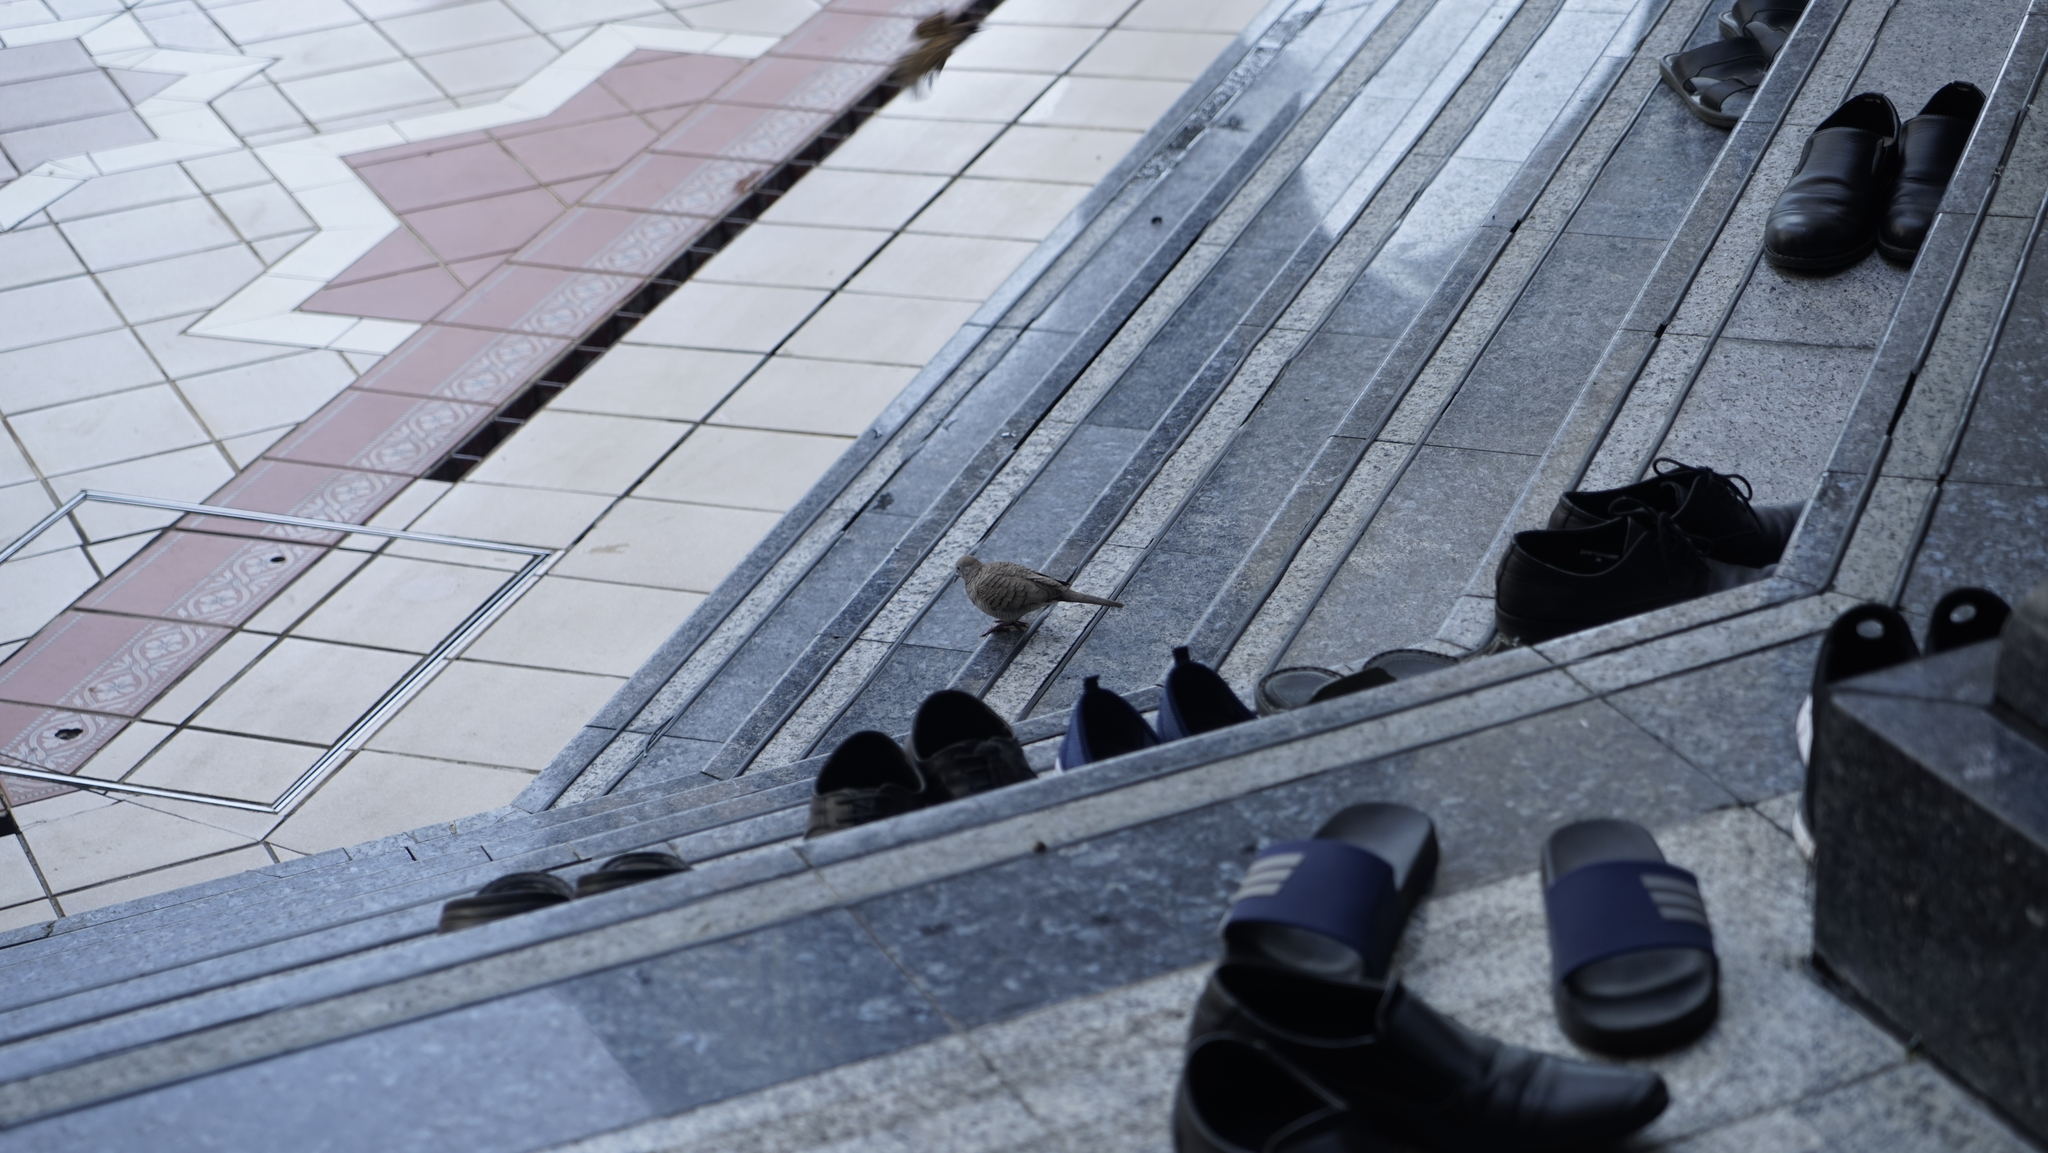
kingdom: Animalia
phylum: Chordata
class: Aves
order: Columbiformes
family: Columbidae
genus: Geopelia
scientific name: Geopelia striata
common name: Zebra dove
